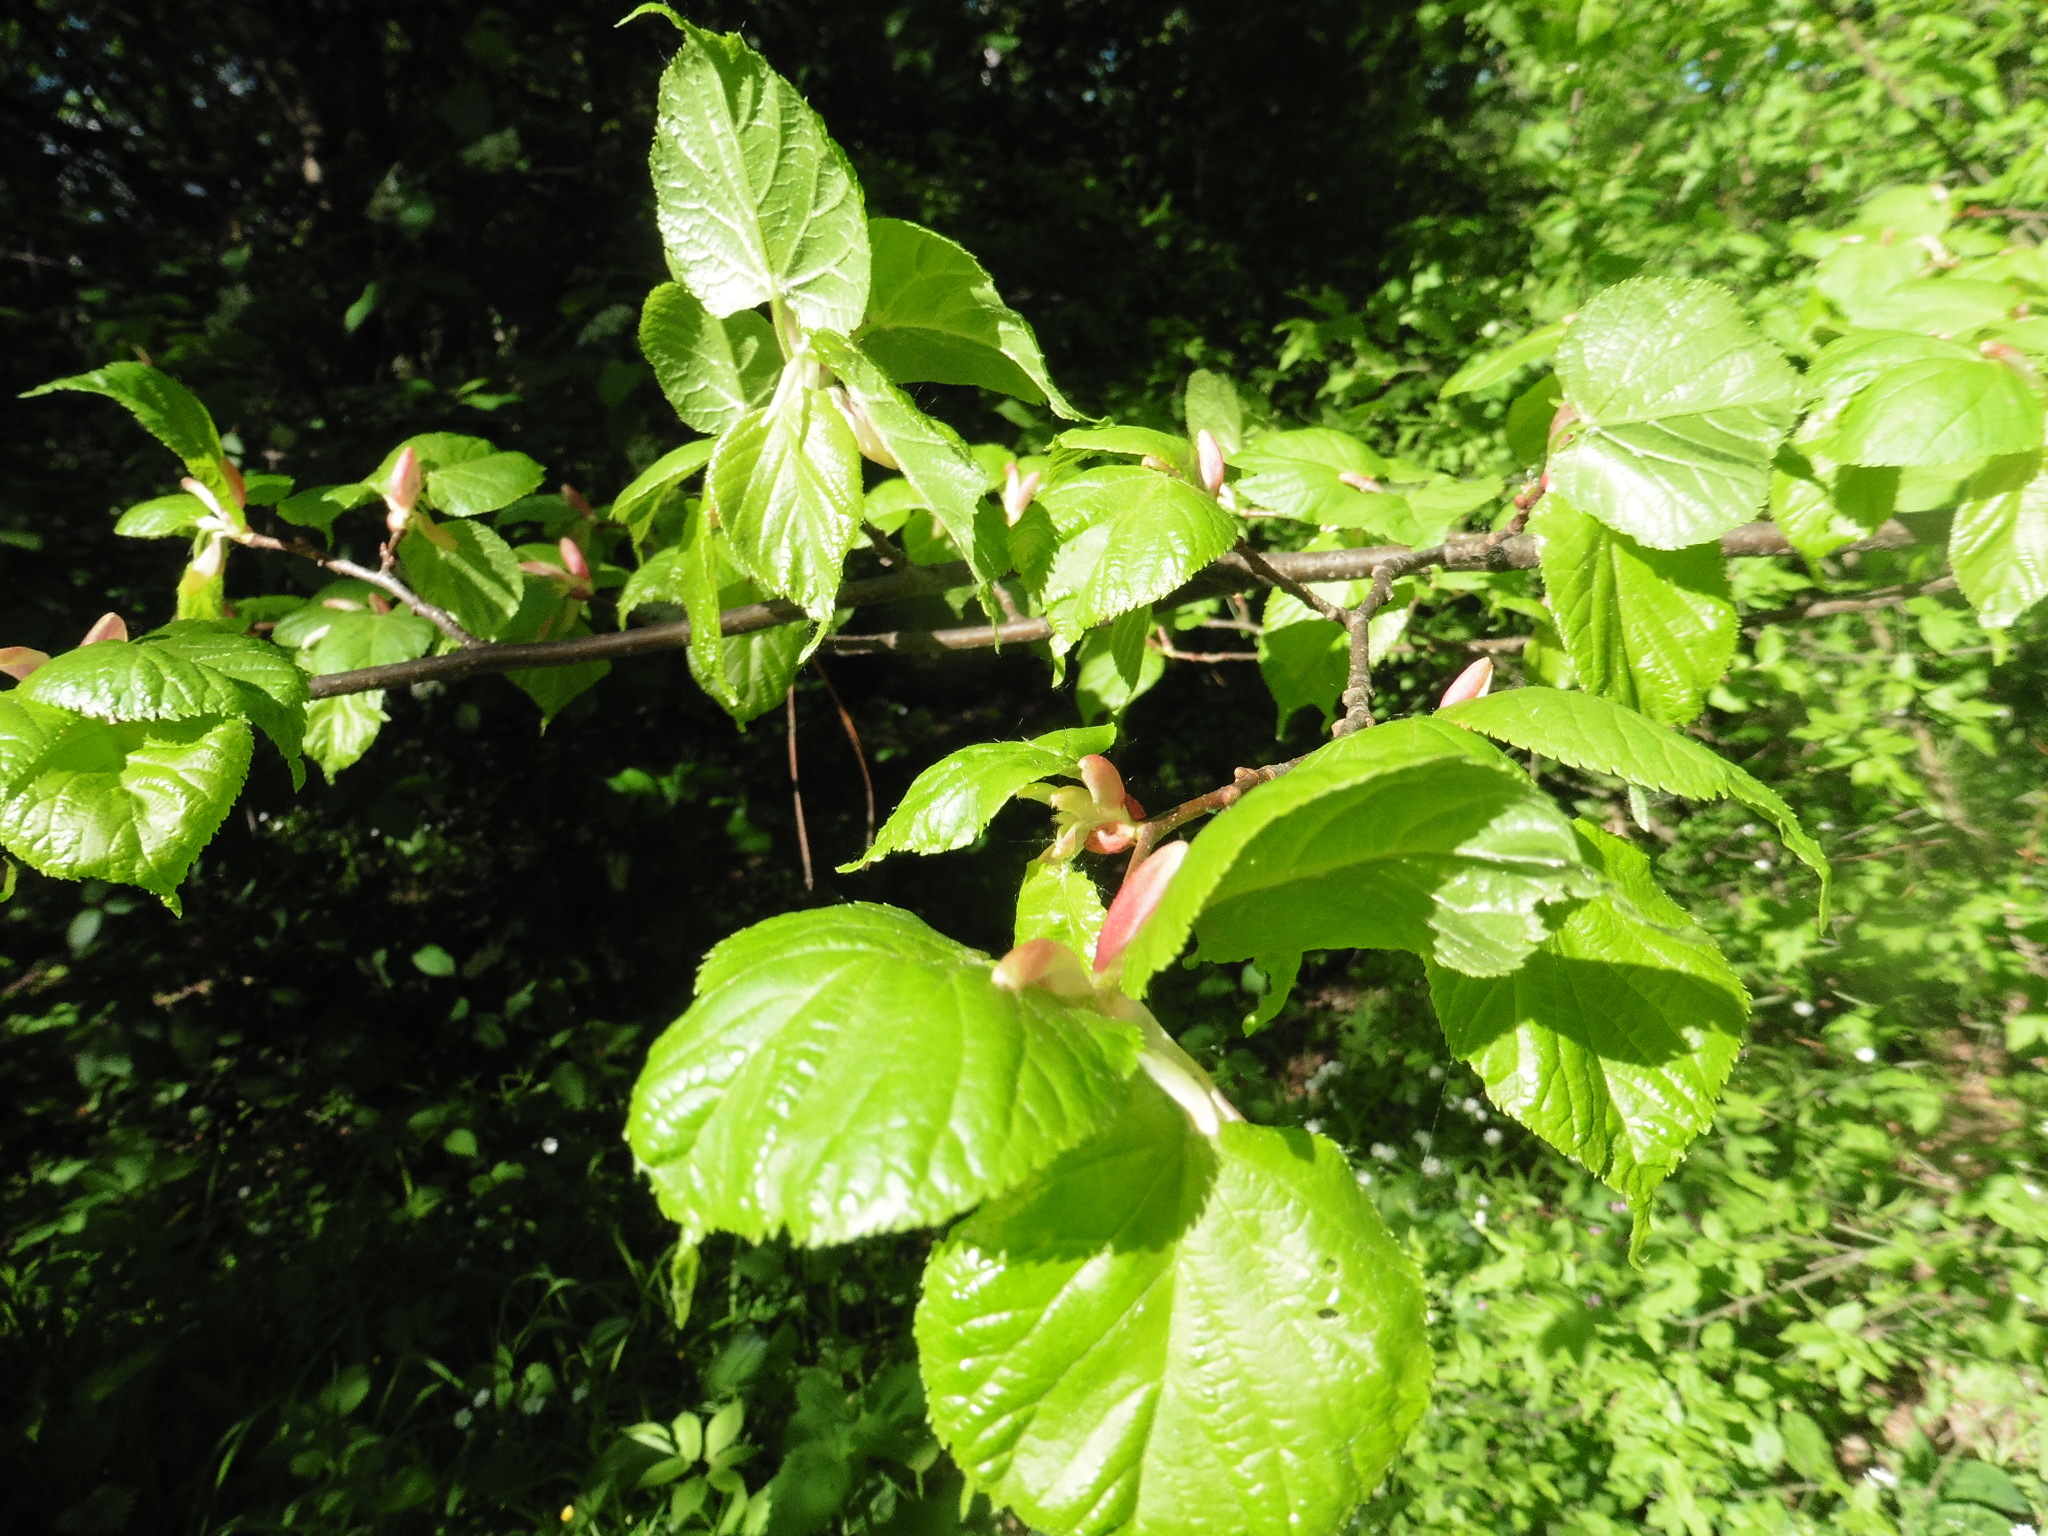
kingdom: Plantae
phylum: Tracheophyta
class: Magnoliopsida
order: Malvales
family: Malvaceae
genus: Tilia
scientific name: Tilia cordata
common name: Small-leaved lime
